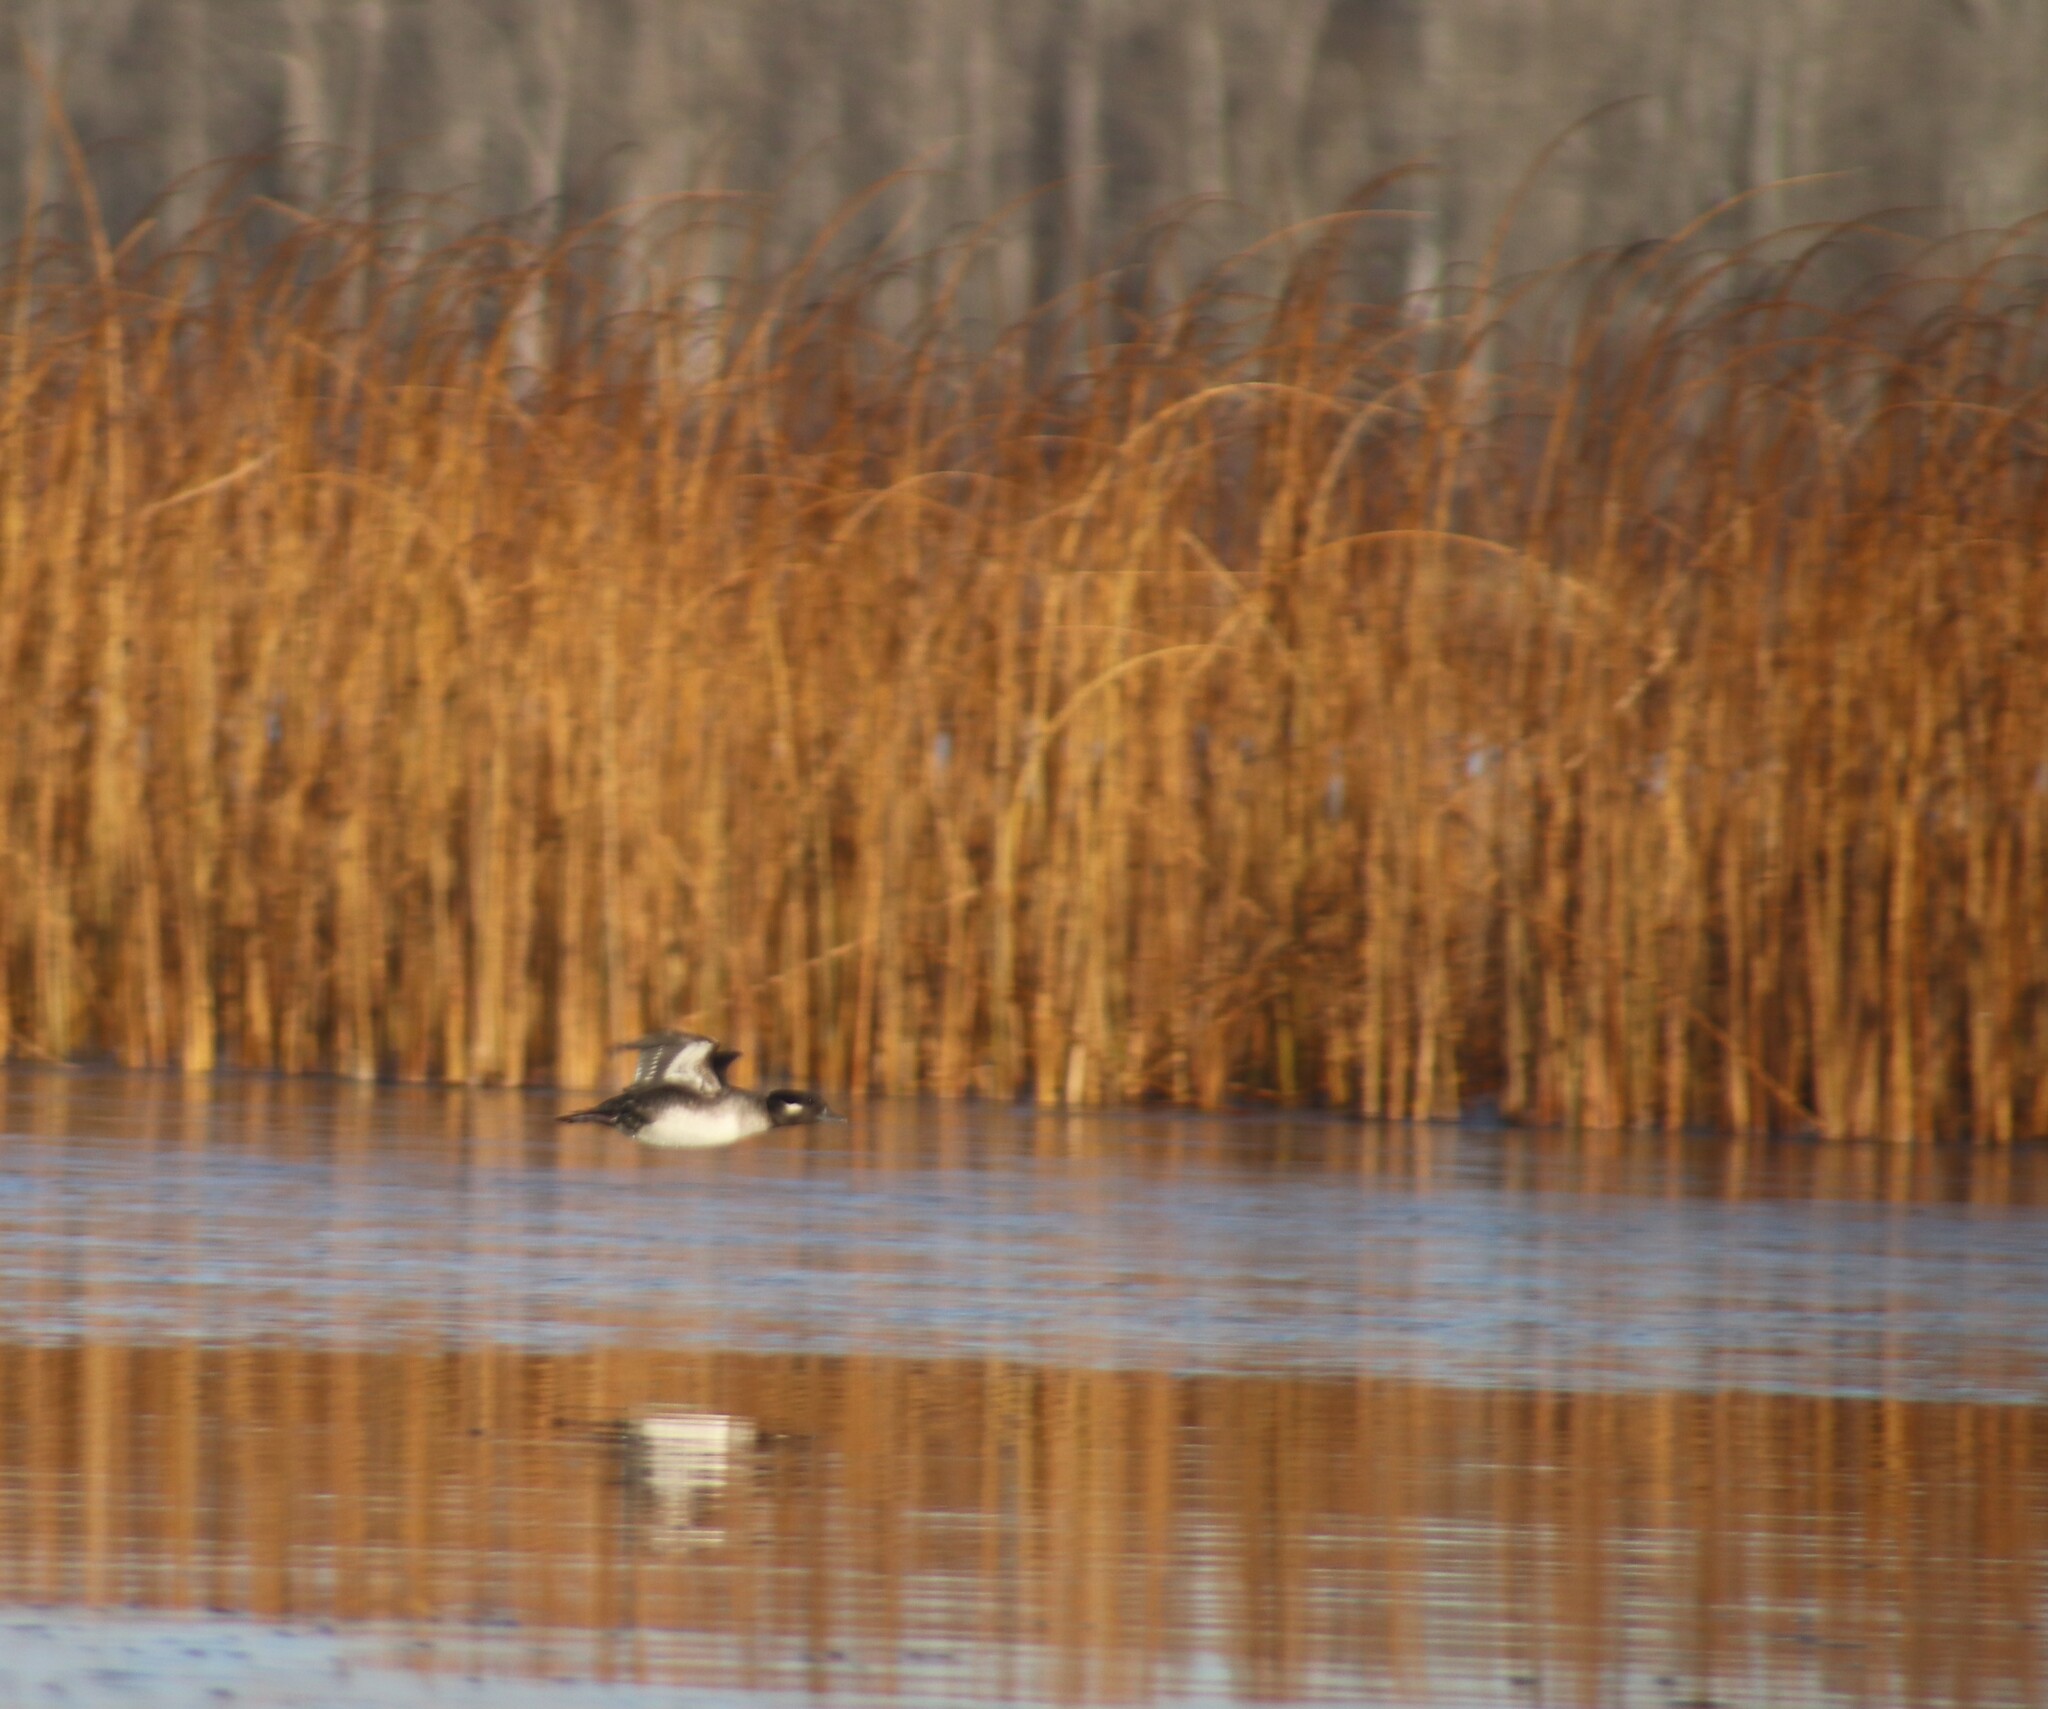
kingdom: Animalia
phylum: Chordata
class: Aves
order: Anseriformes
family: Anatidae
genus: Bucephala
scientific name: Bucephala albeola
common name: Bufflehead
